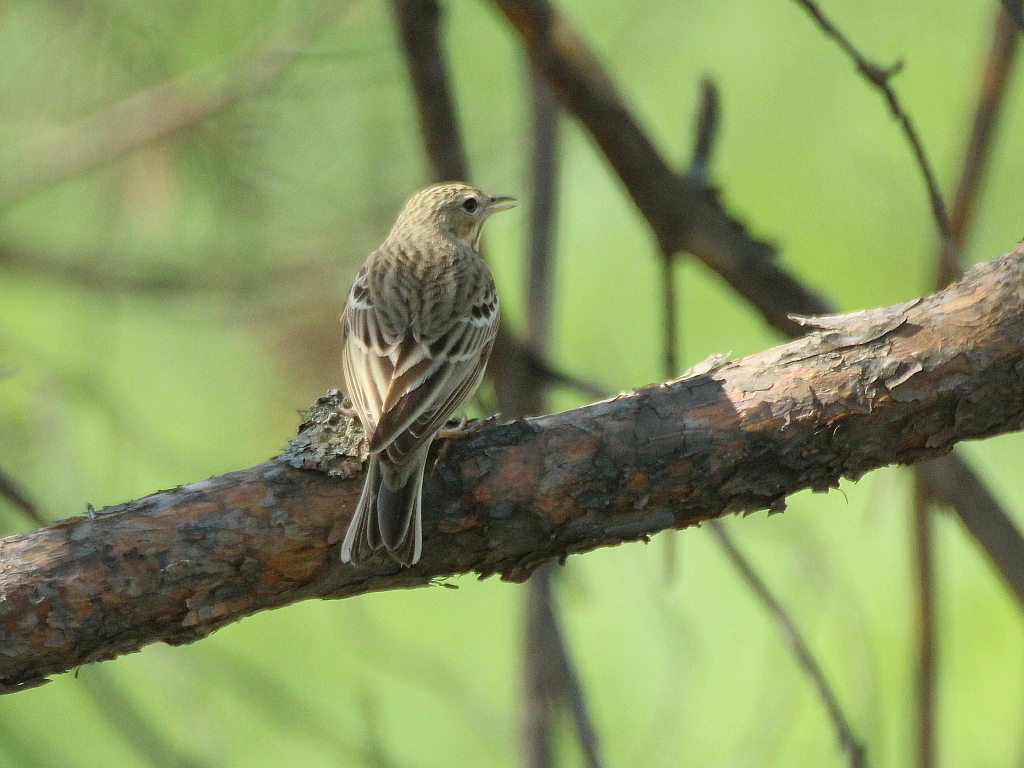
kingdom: Animalia
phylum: Chordata
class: Aves
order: Passeriformes
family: Motacillidae
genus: Anthus
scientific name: Anthus trivialis
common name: Tree pipit
